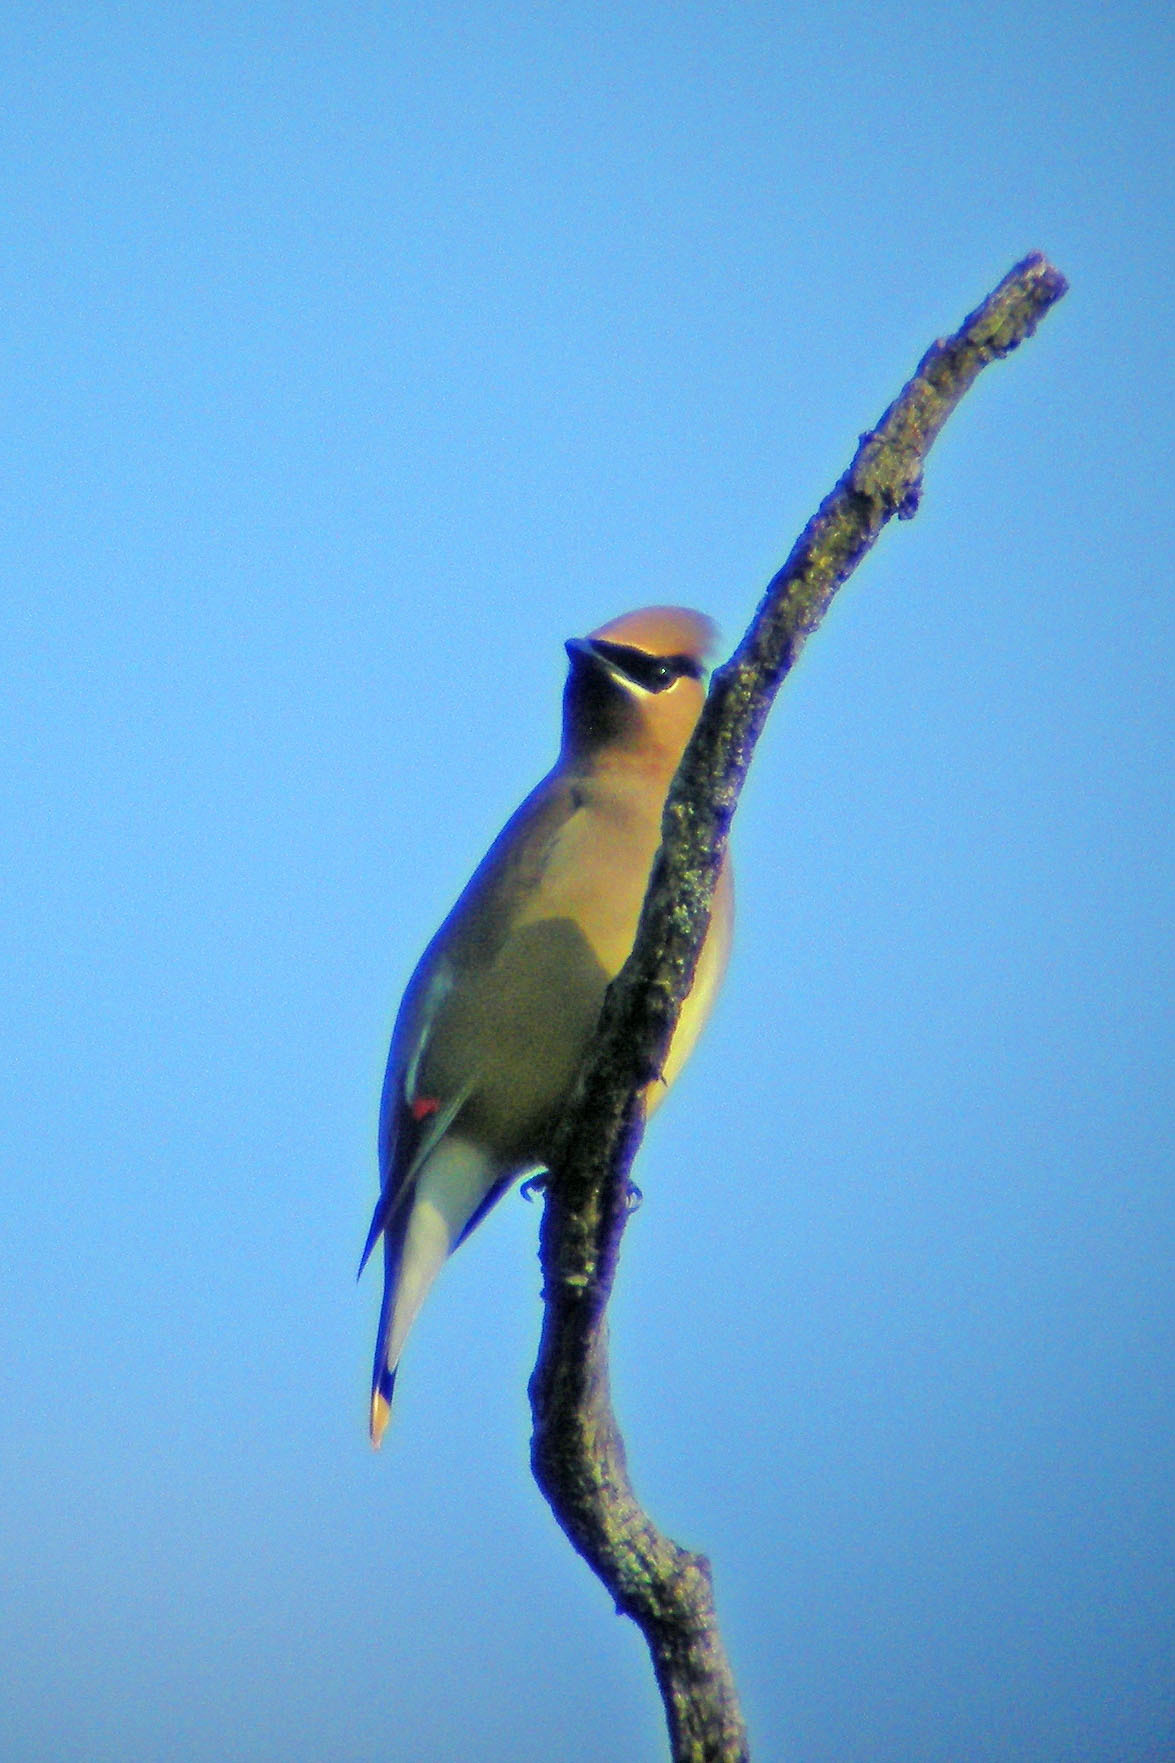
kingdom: Animalia
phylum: Chordata
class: Aves
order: Passeriformes
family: Bombycillidae
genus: Bombycilla
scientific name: Bombycilla cedrorum
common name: Cedar waxwing
